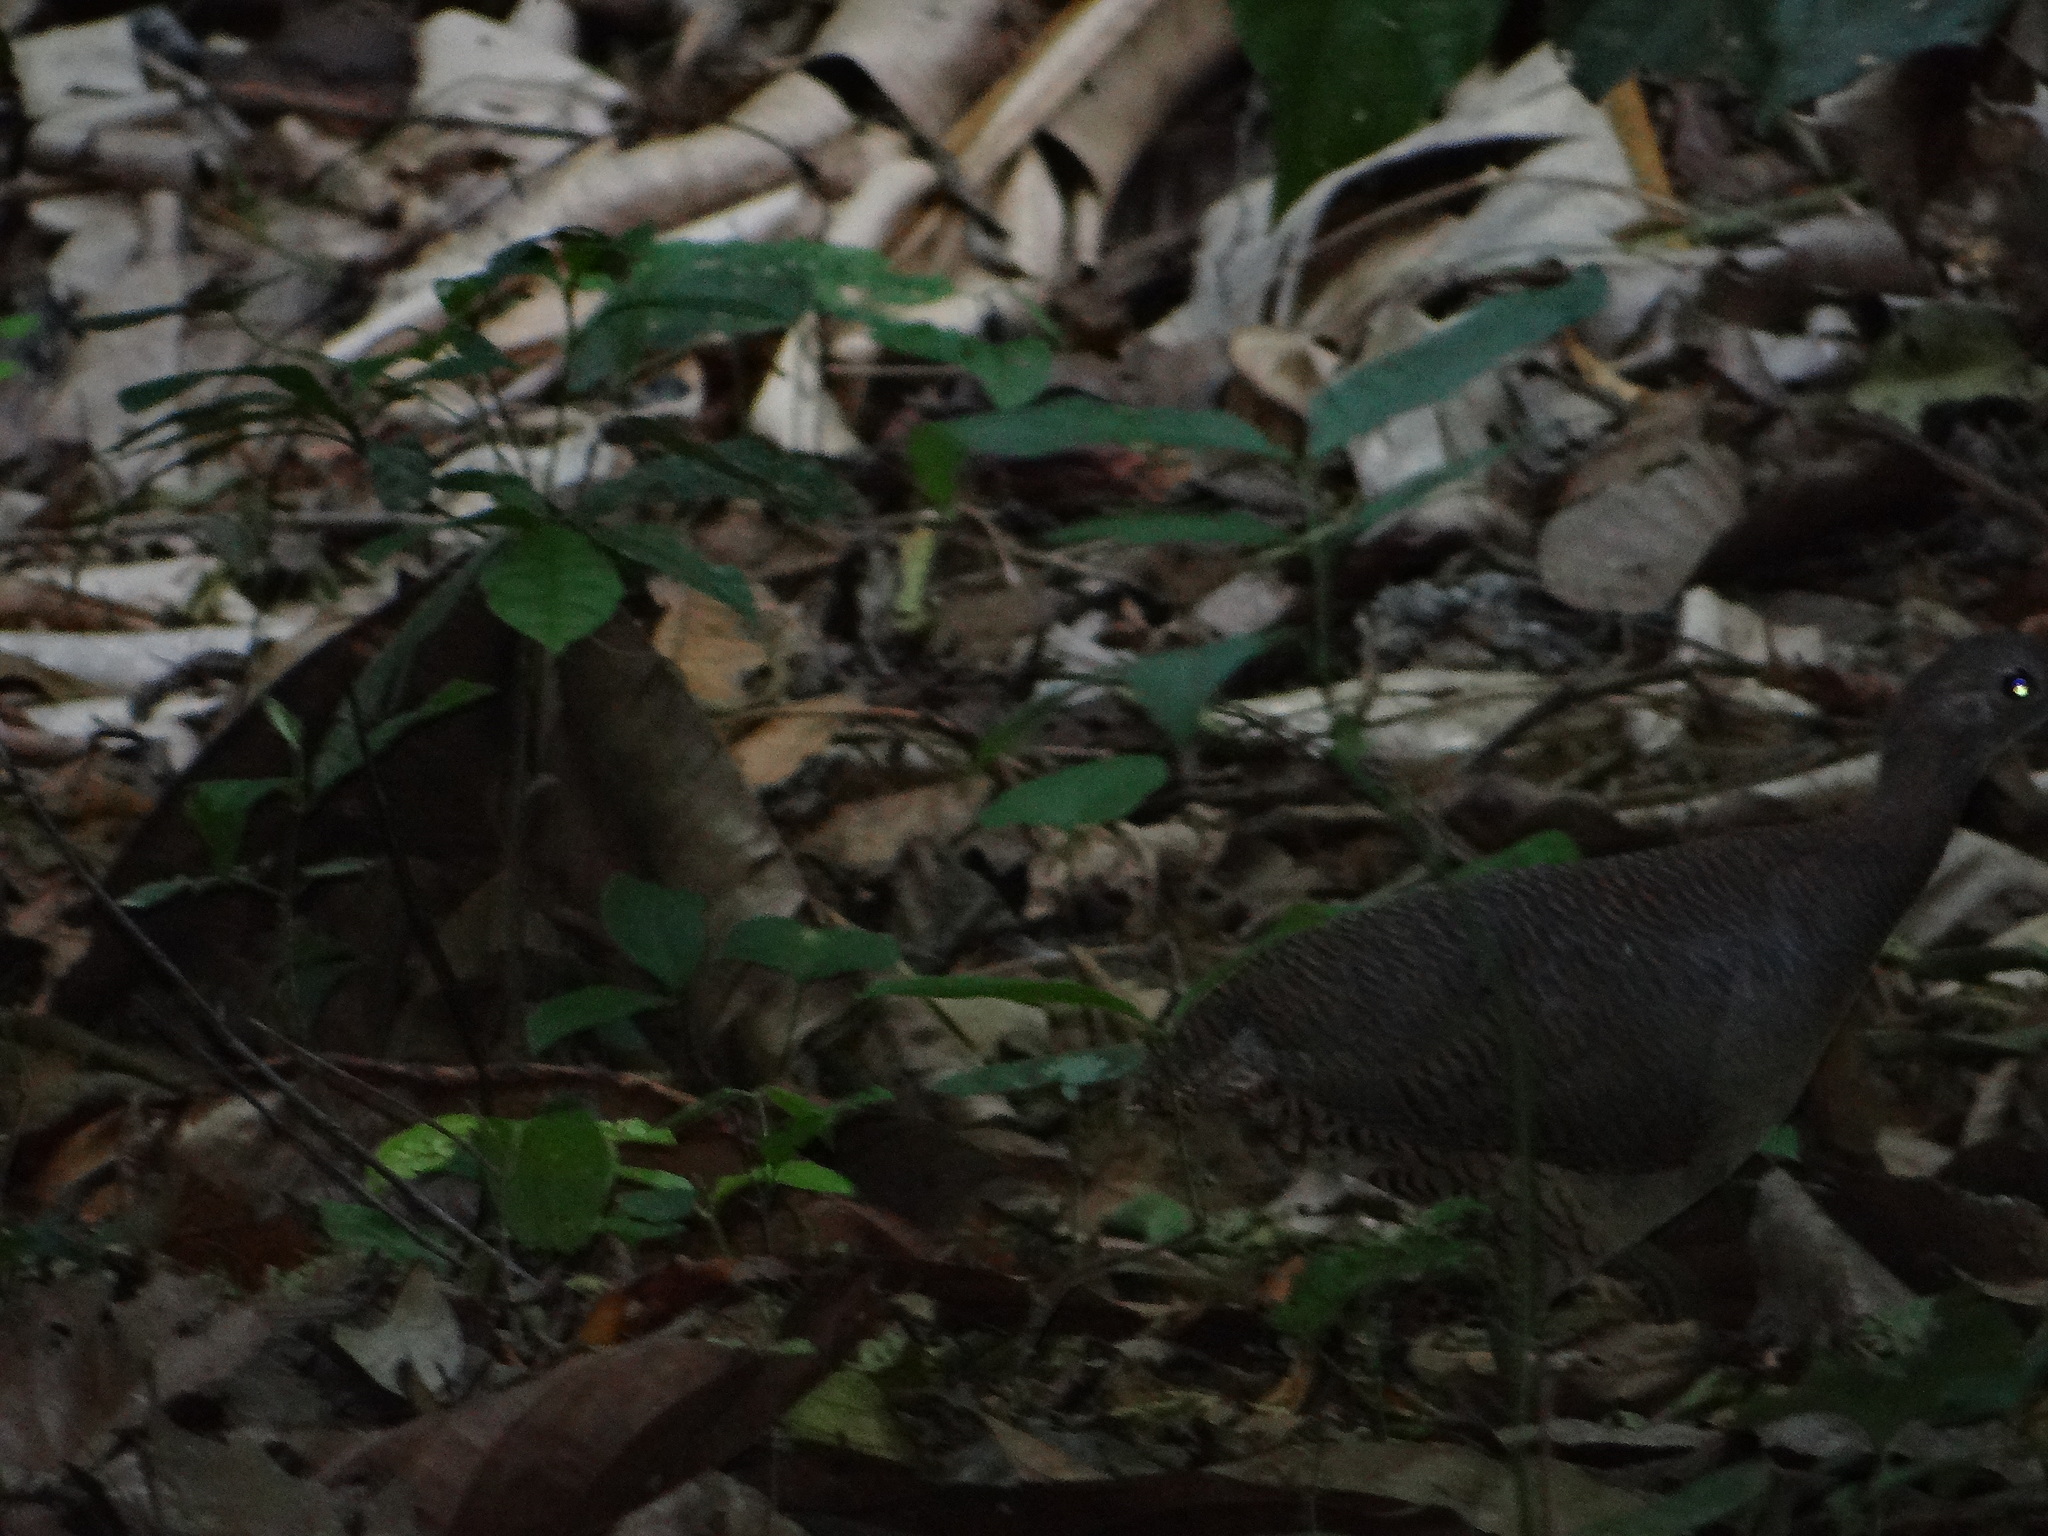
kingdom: Animalia
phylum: Chordata
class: Aves
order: Tinamiformes
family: Tinamidae
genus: Crypturellus
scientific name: Crypturellus undulatus
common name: Undulated tinamou
